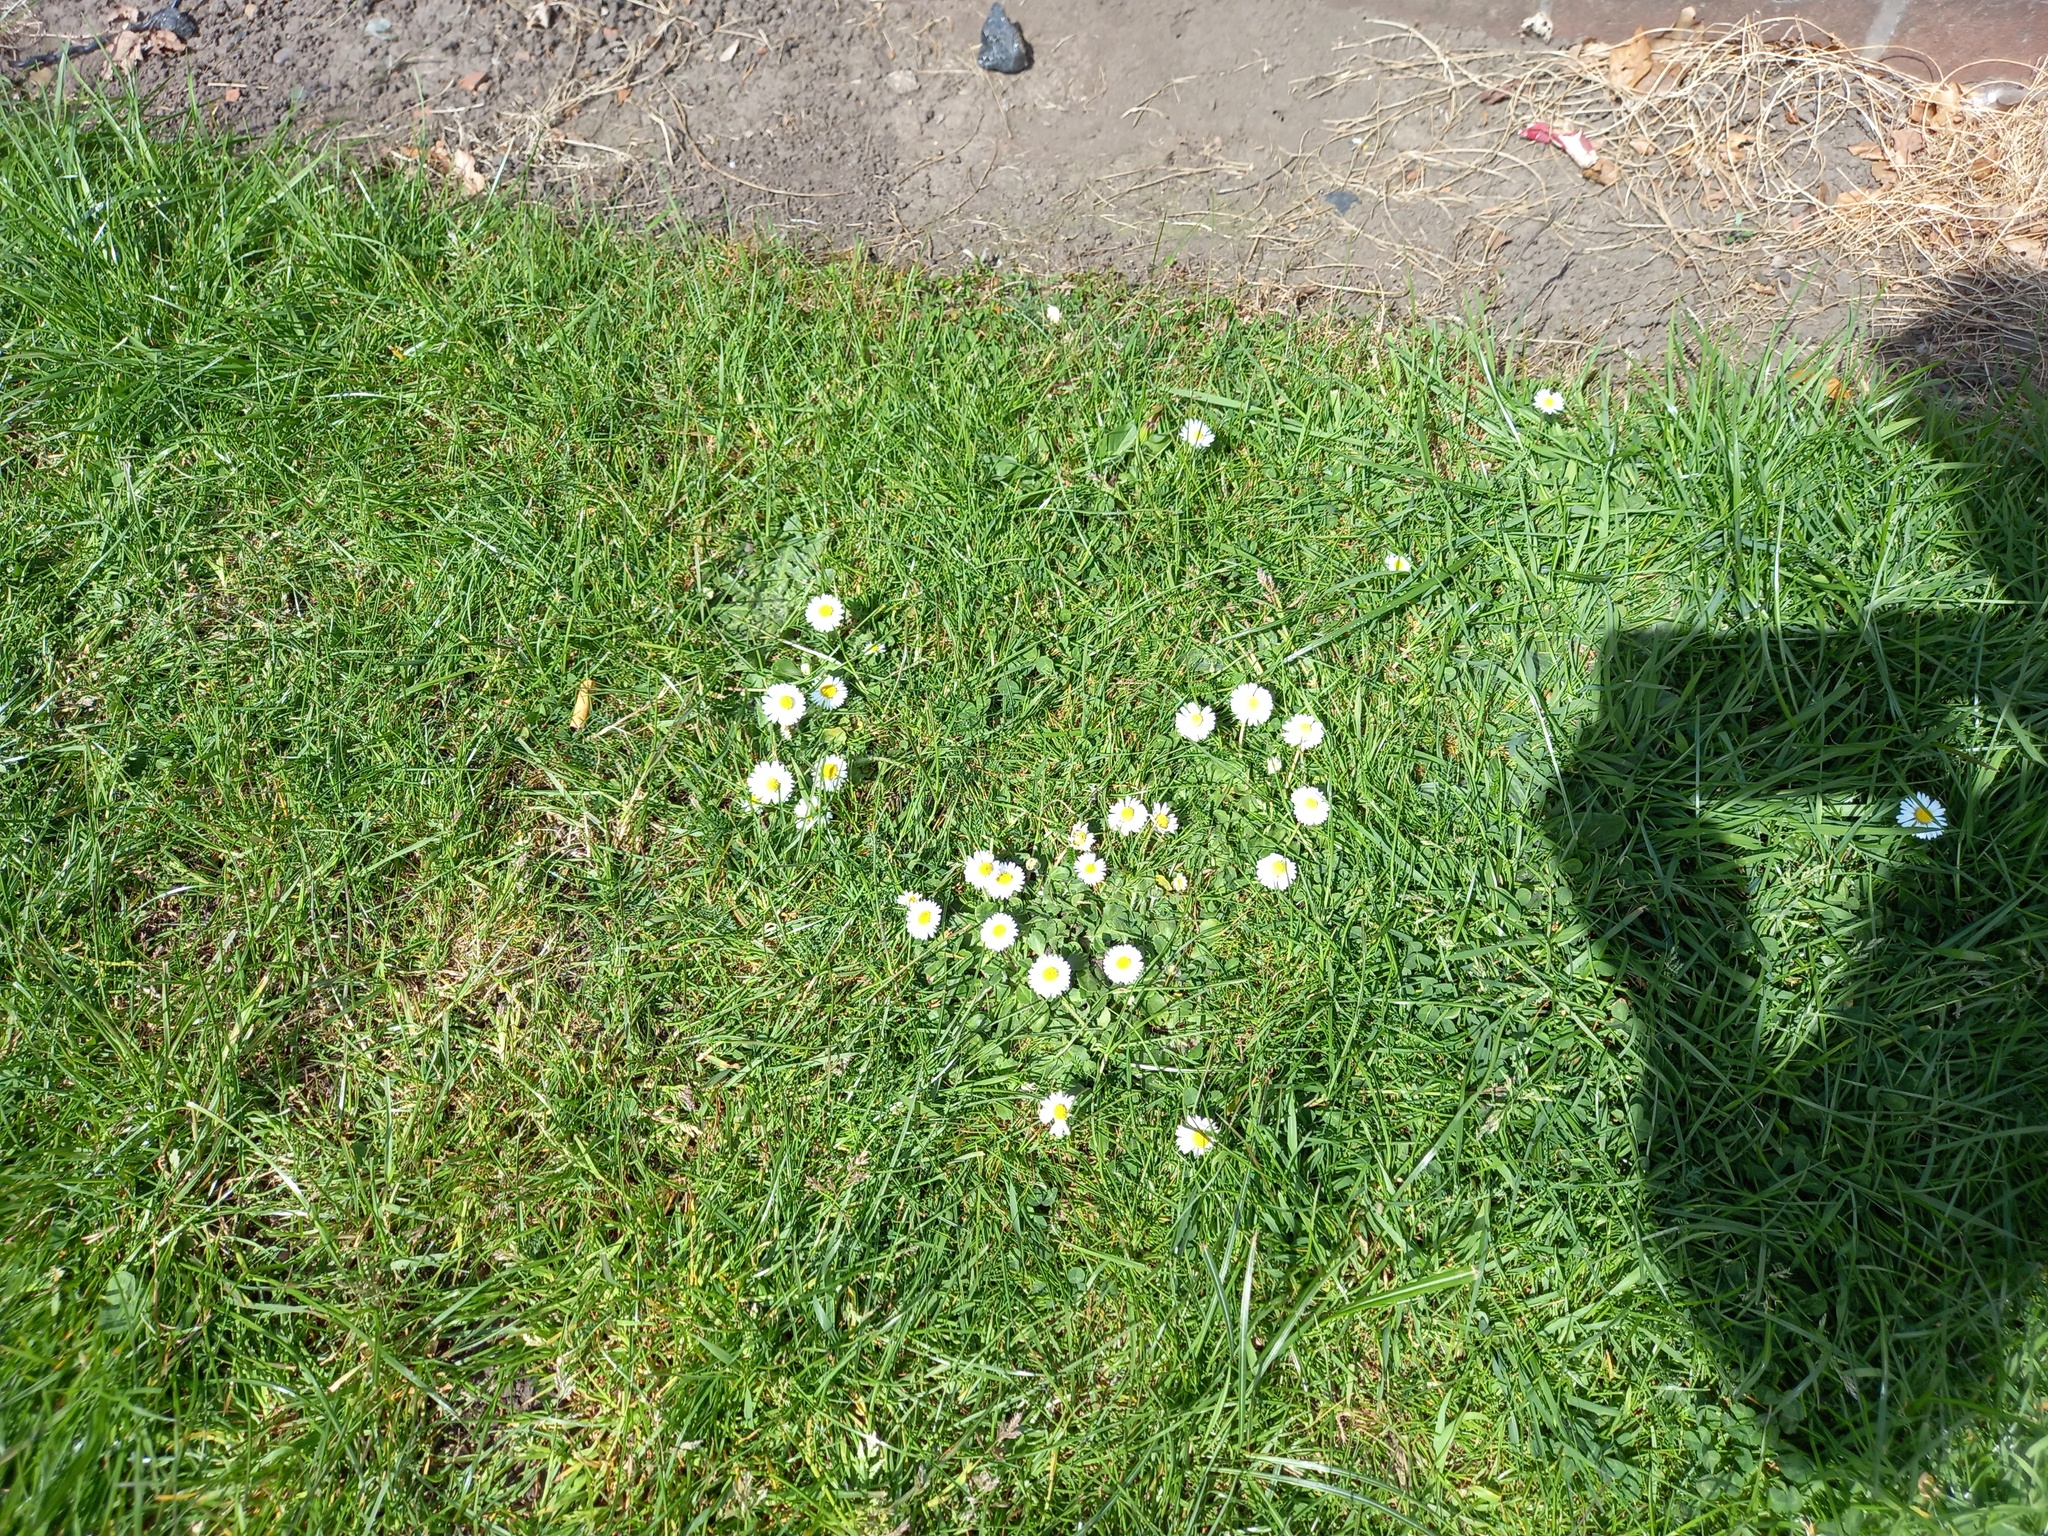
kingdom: Plantae
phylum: Tracheophyta
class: Magnoliopsida
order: Asterales
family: Asteraceae
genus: Bellis
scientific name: Bellis perennis
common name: Lawndaisy
